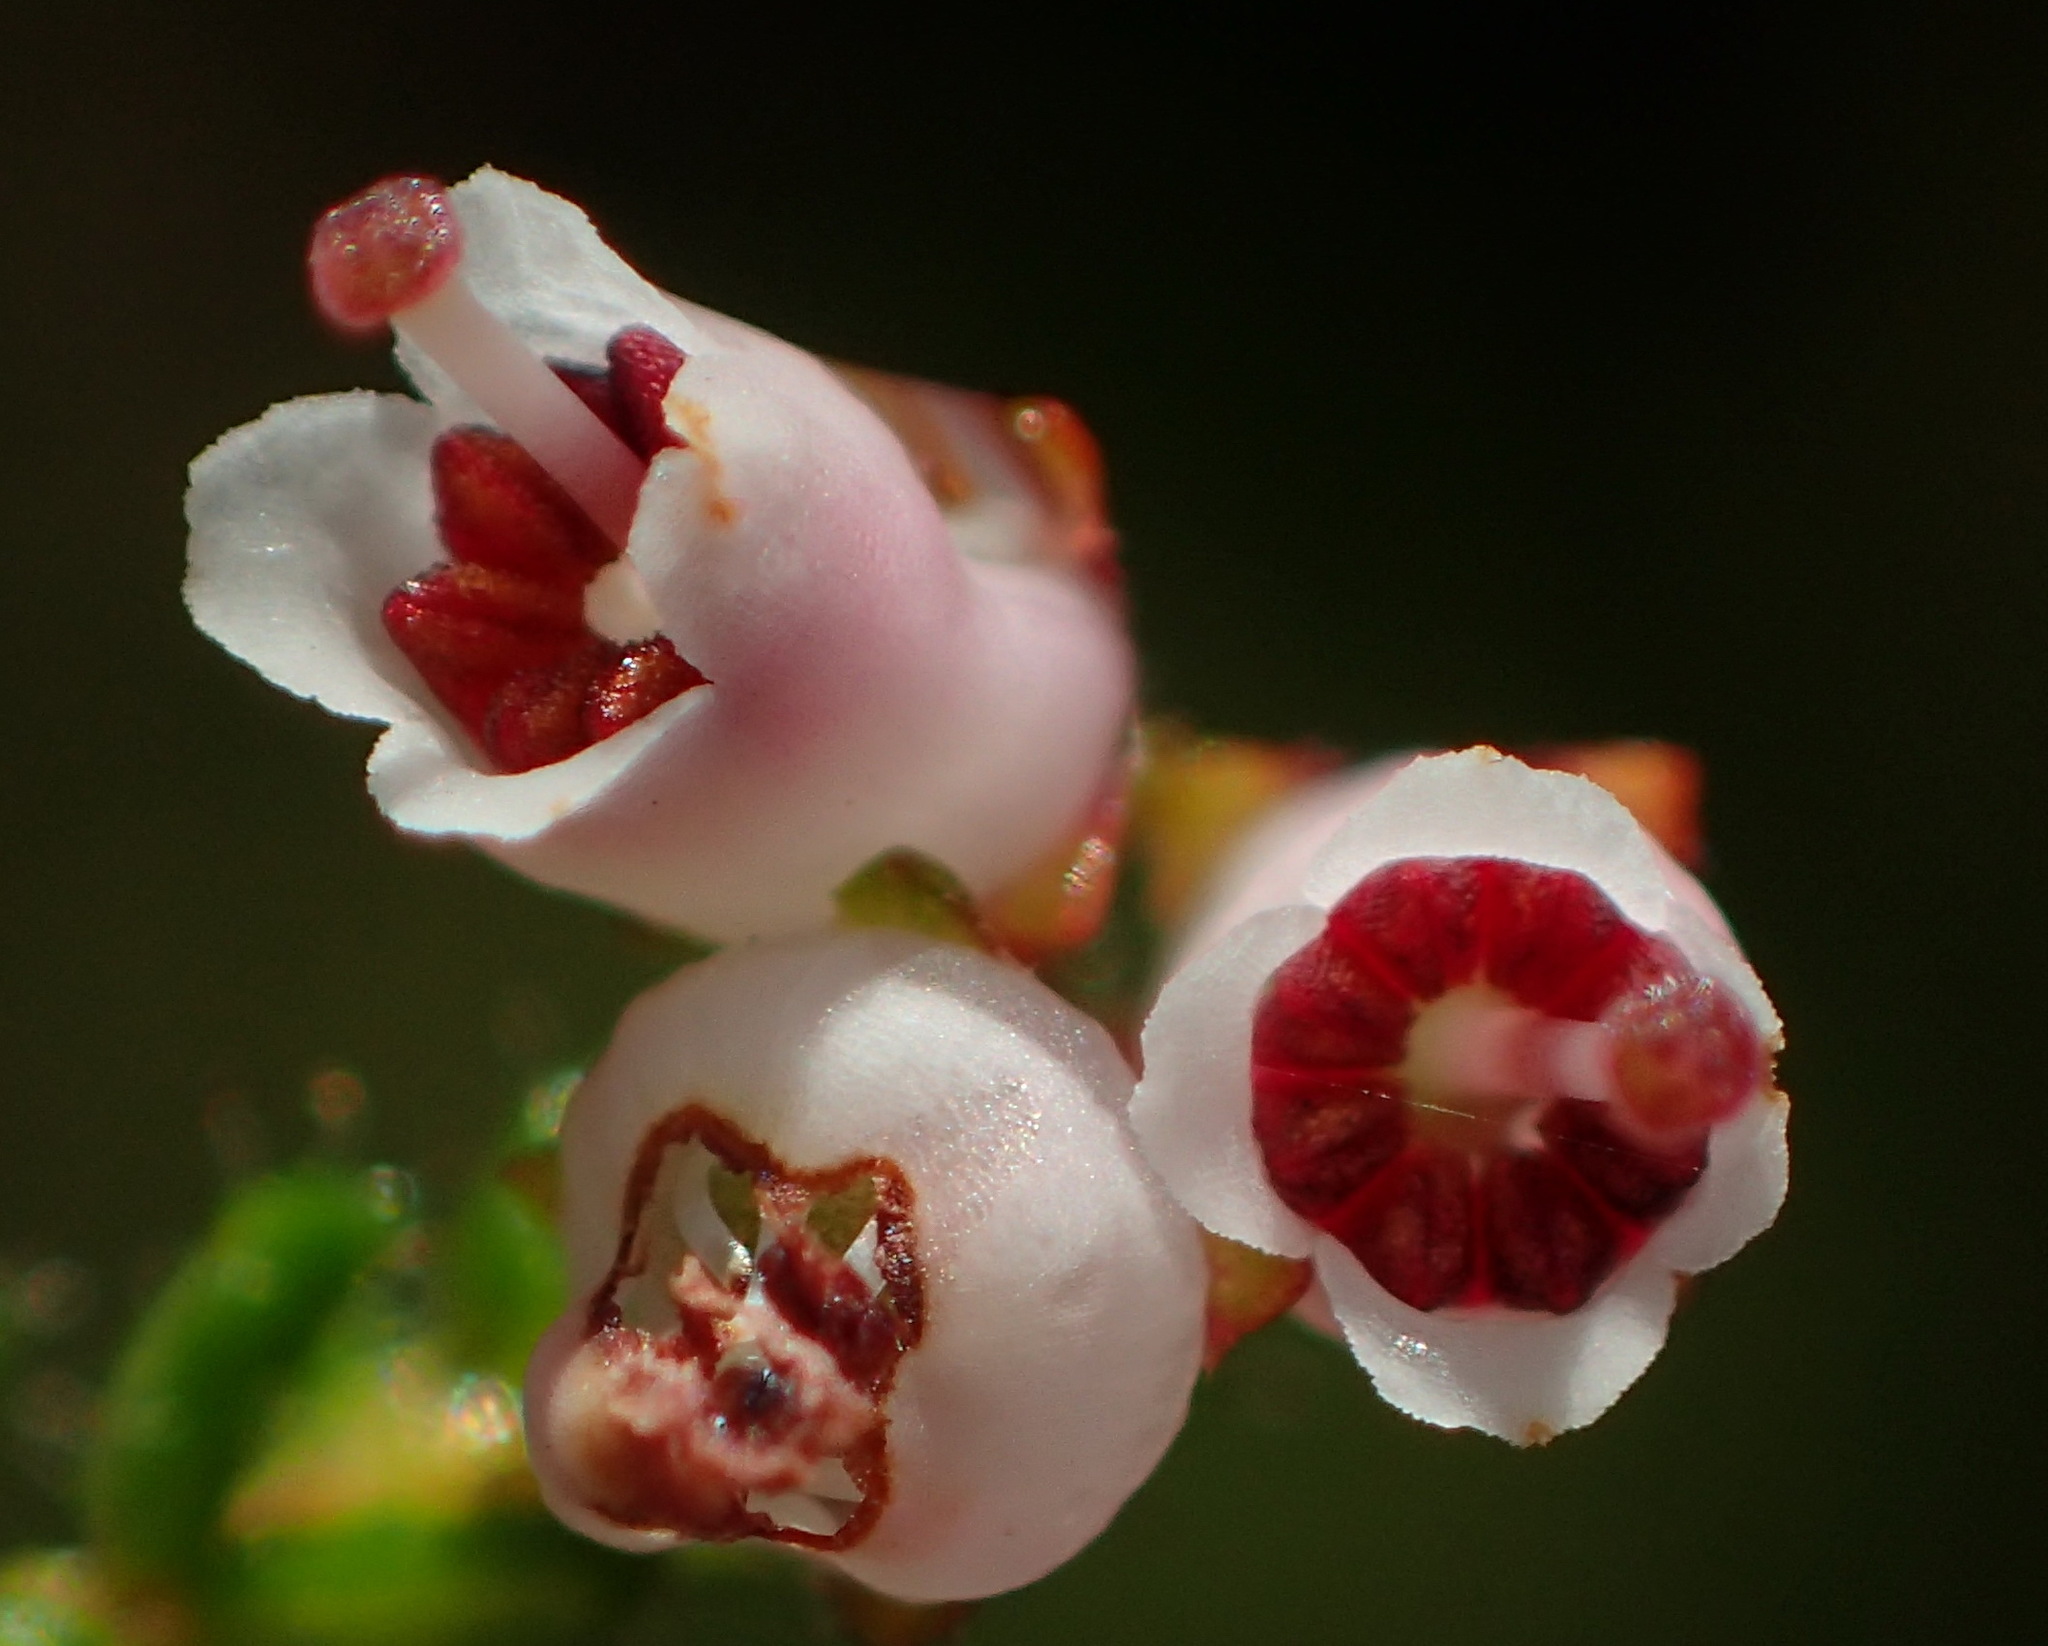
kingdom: Plantae
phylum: Tracheophyta
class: Magnoliopsida
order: Ericales
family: Ericaceae
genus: Erica
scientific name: Erica scabriuscula
